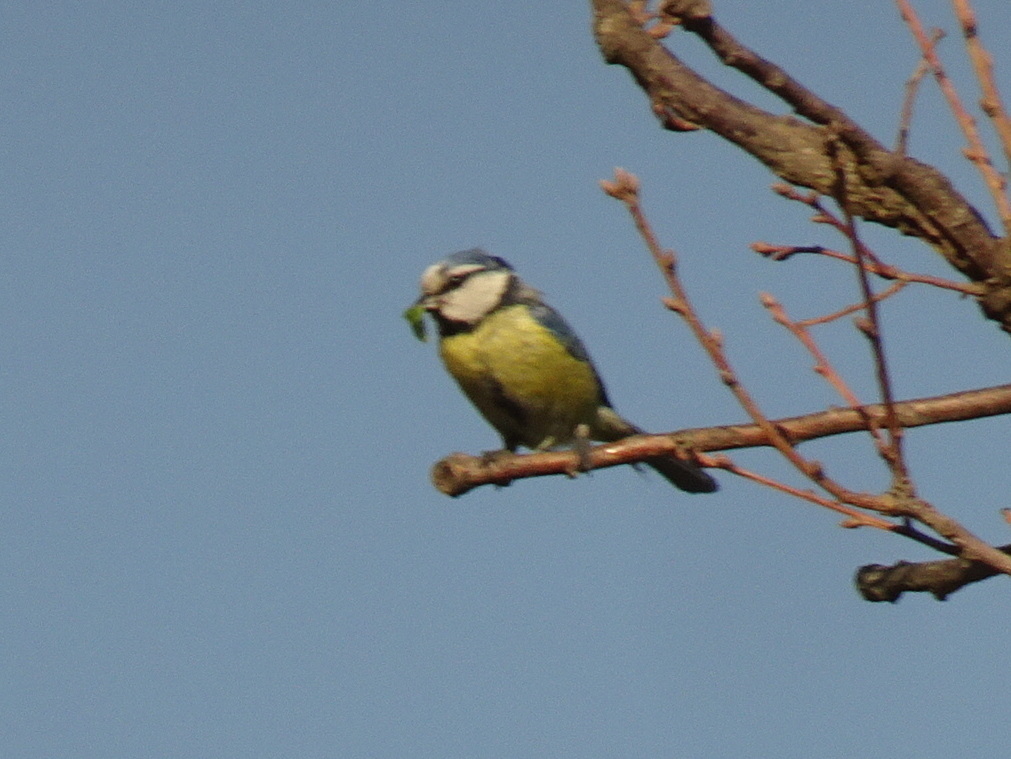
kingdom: Animalia
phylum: Chordata
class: Aves
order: Passeriformes
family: Paridae
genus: Cyanistes
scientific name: Cyanistes caeruleus
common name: Eurasian blue tit
